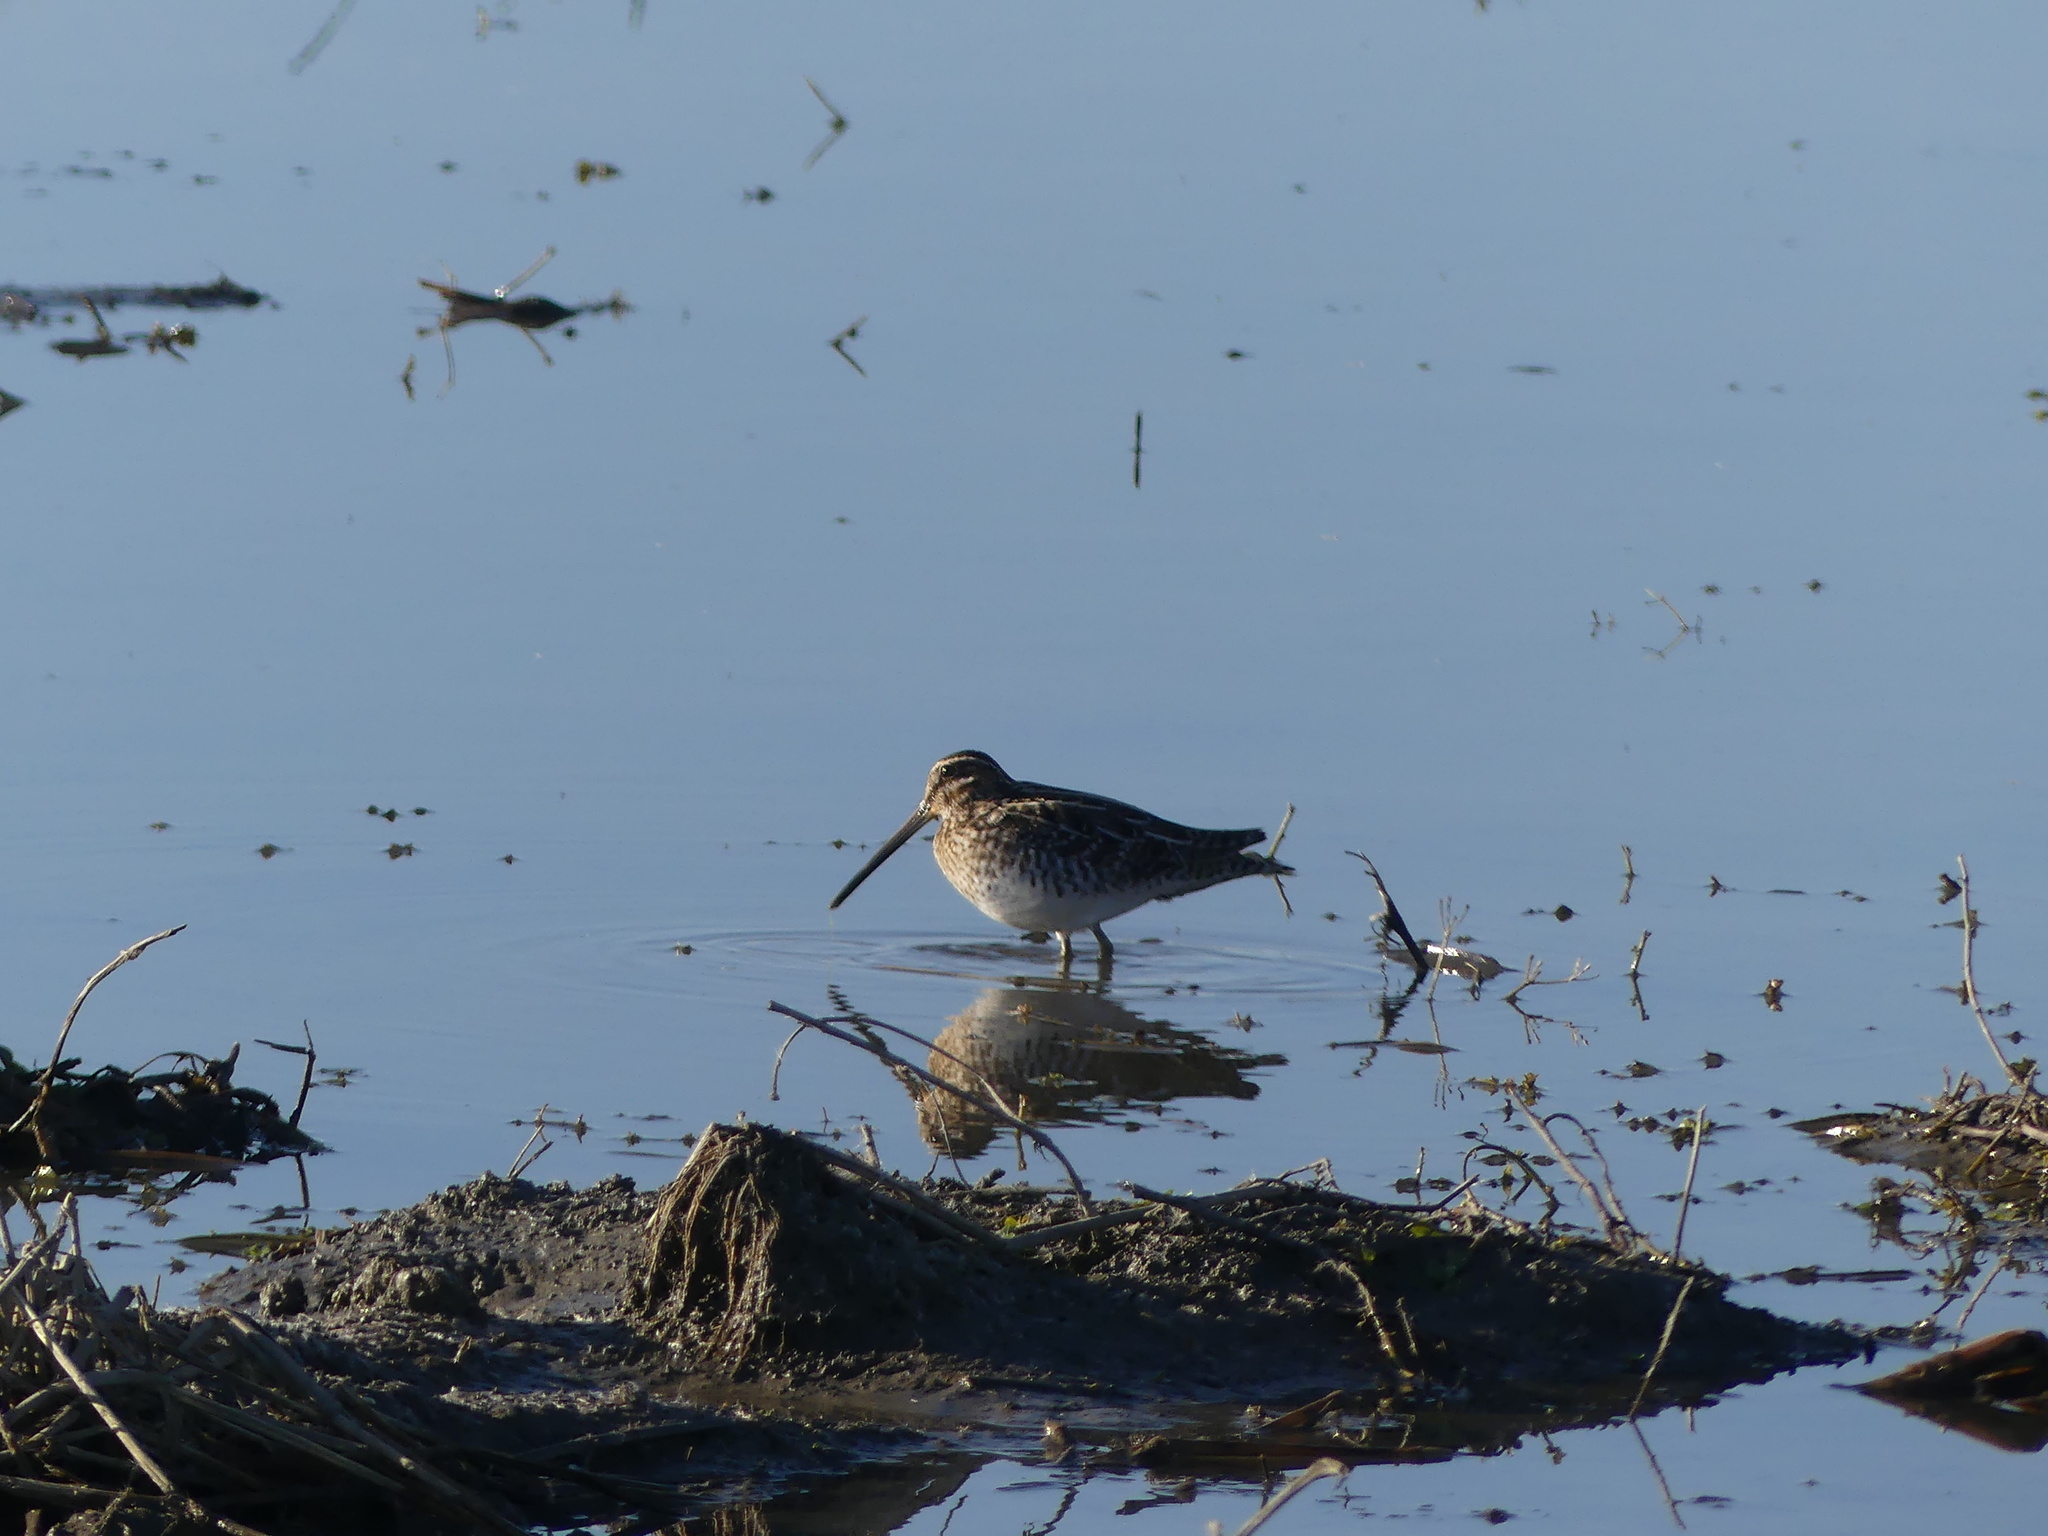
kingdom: Animalia
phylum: Chordata
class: Aves
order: Charadriiformes
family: Scolopacidae
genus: Gallinago
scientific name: Gallinago delicata
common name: Wilson's snipe
